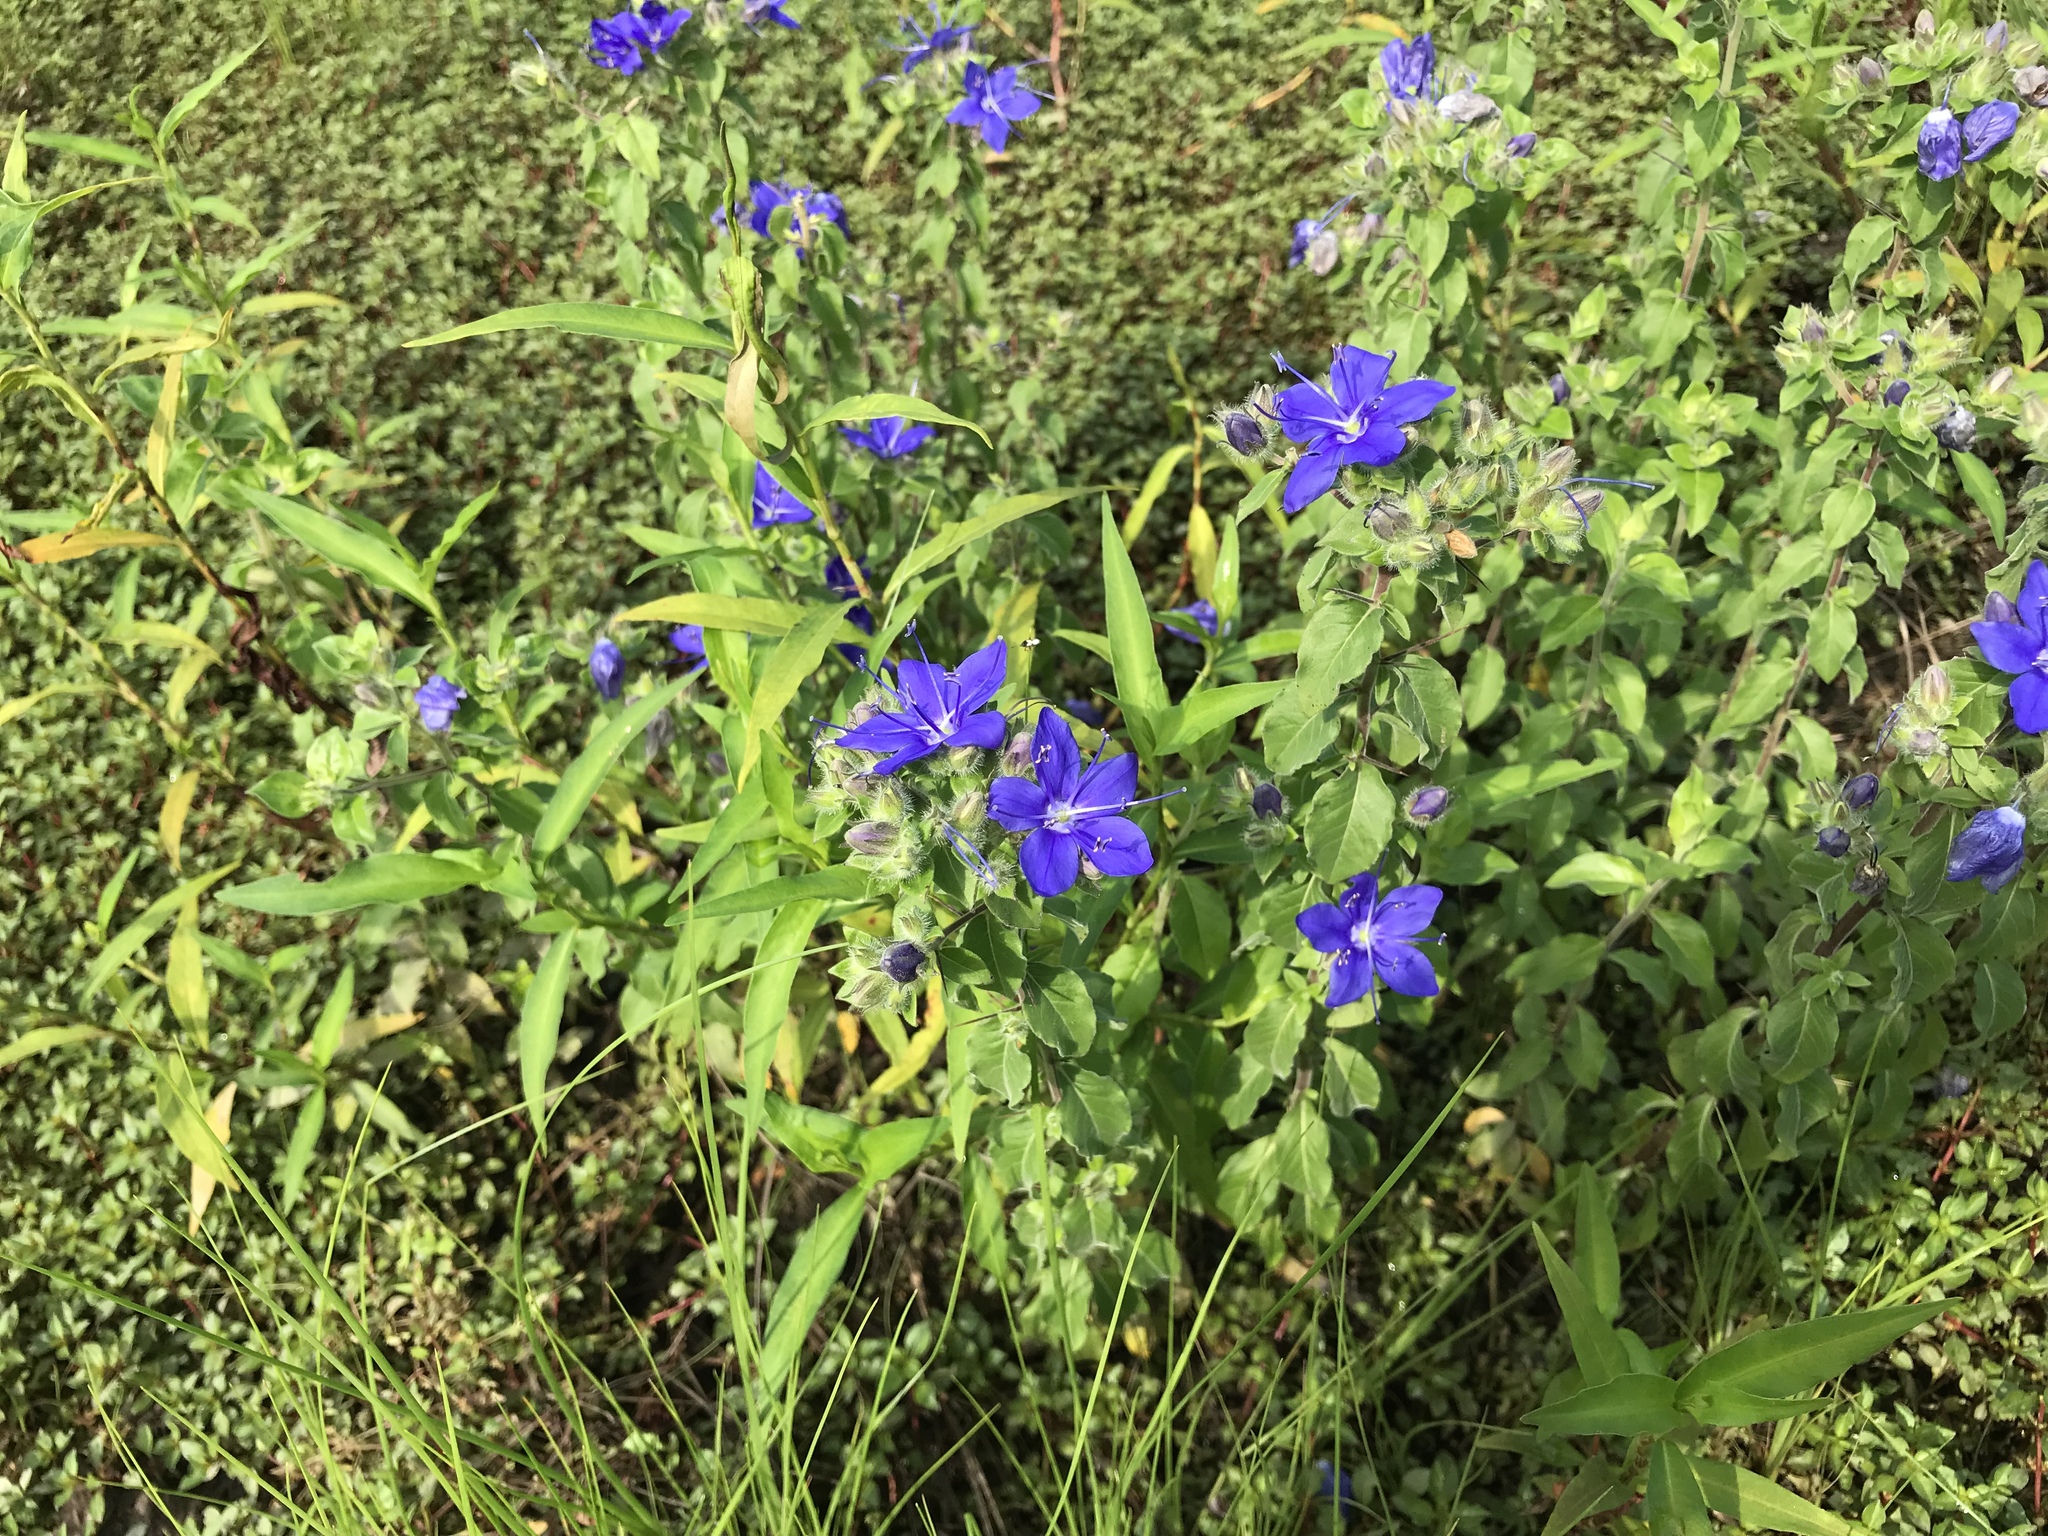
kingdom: Plantae
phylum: Tracheophyta
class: Magnoliopsida
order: Solanales
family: Hydroleaceae
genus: Hydrolea
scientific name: Hydrolea ovata
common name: Ovate false fiddleleaf
